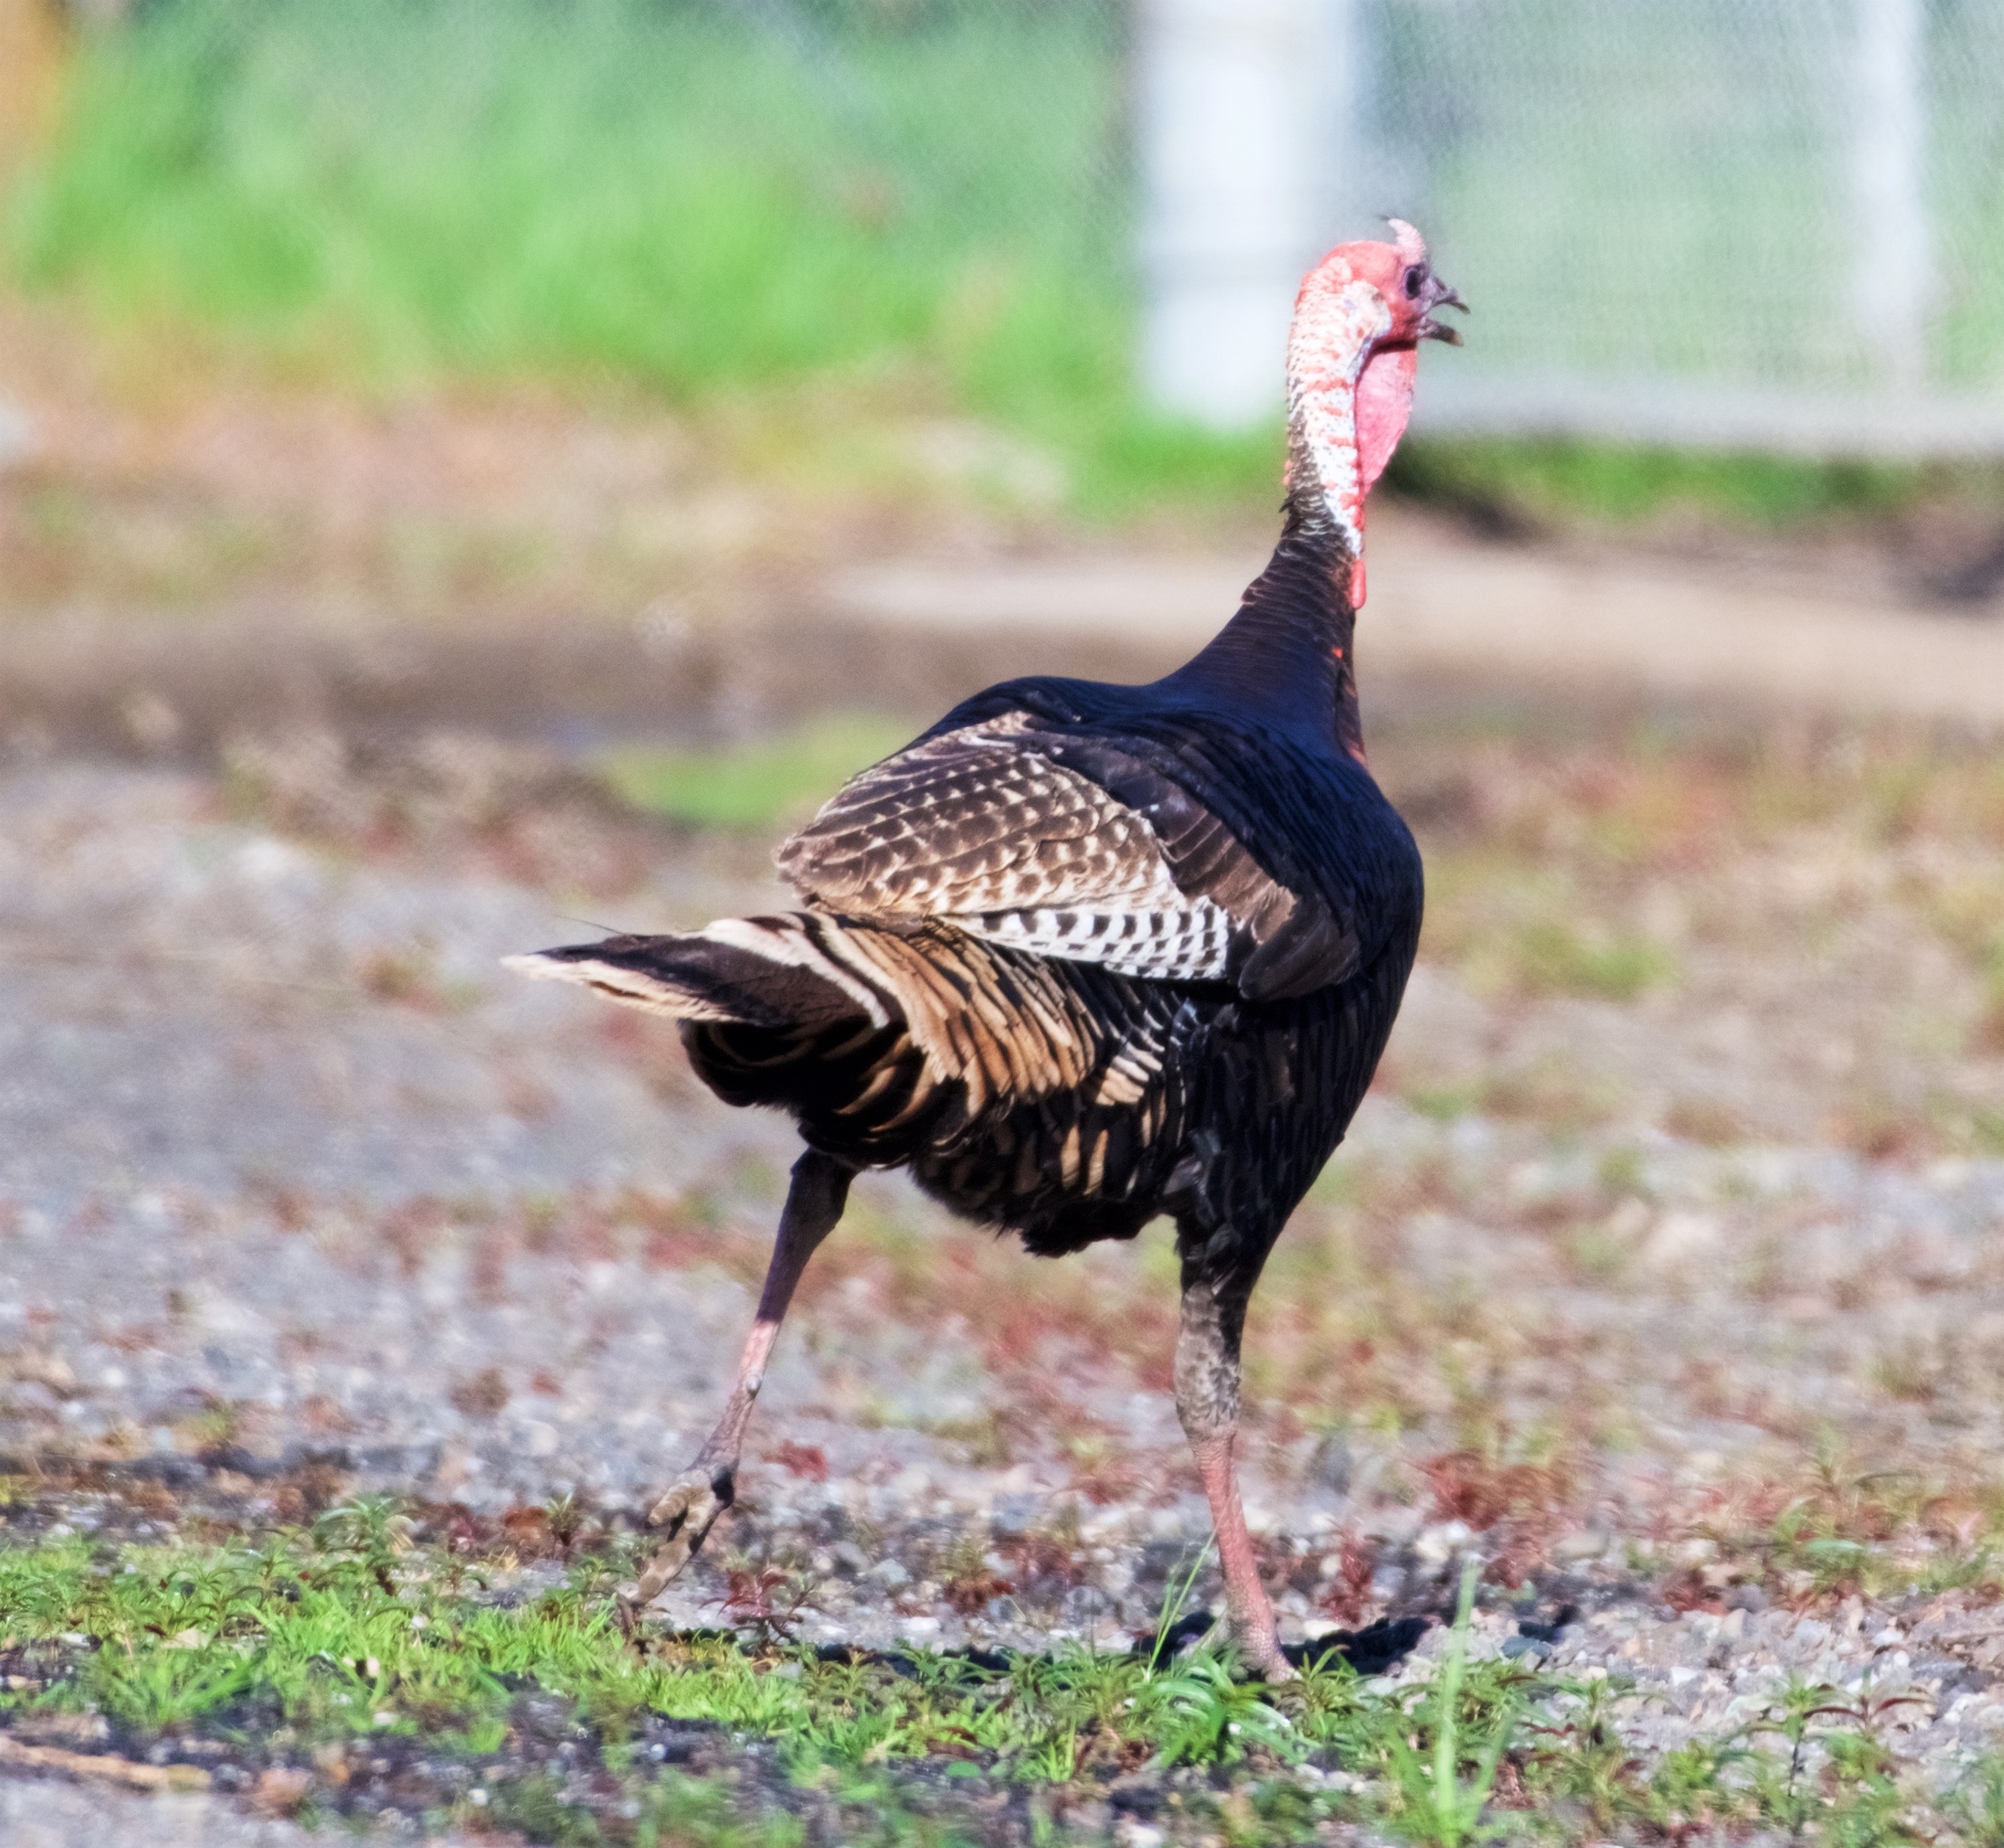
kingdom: Animalia
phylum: Chordata
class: Aves
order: Galliformes
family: Phasianidae
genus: Meleagris
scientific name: Meleagris gallopavo
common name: Wild turkey
